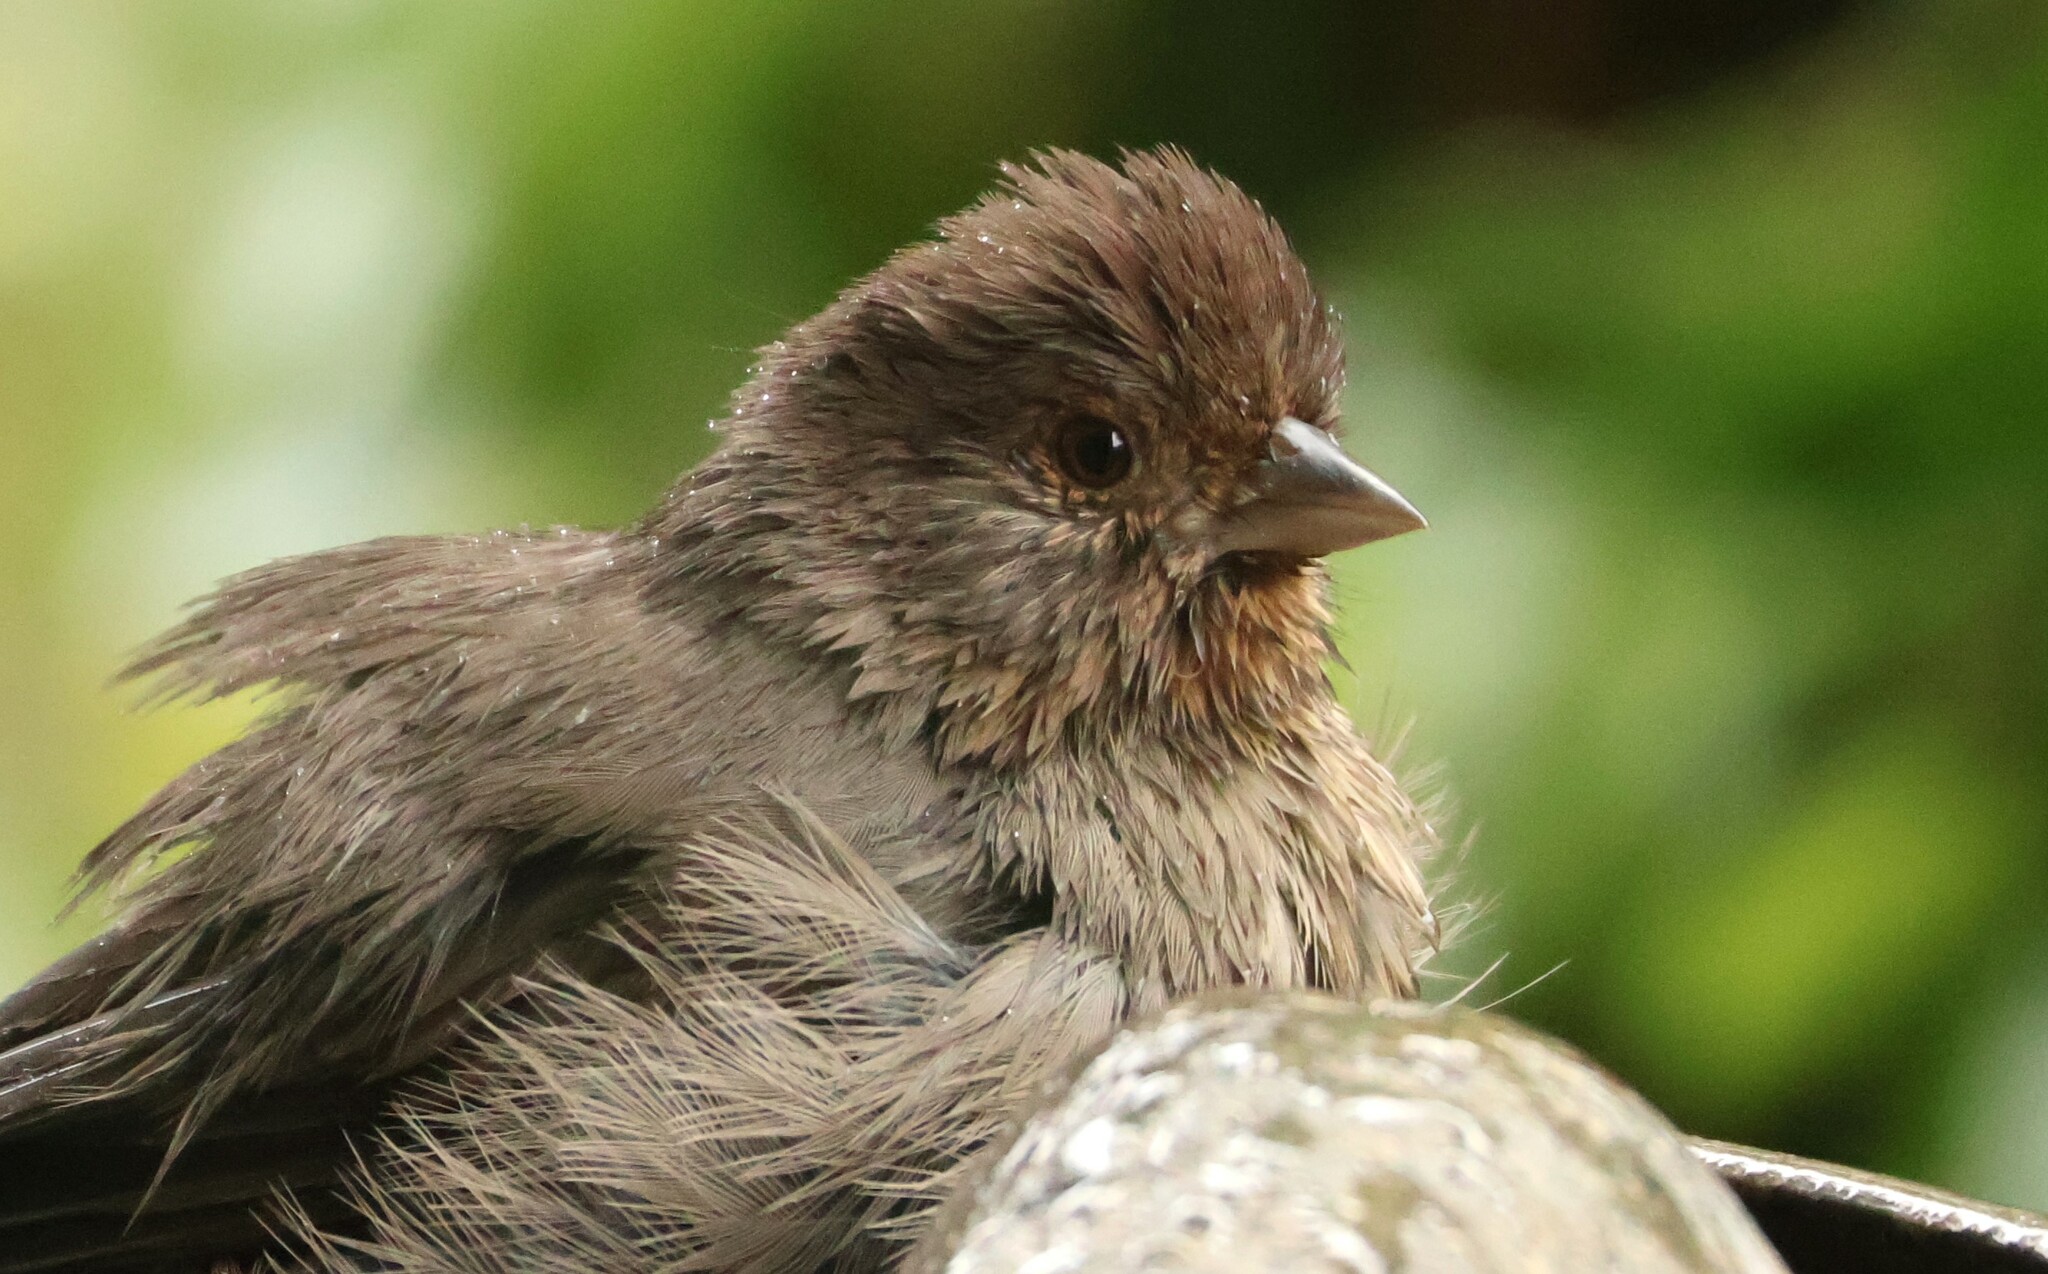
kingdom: Animalia
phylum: Chordata
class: Aves
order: Passeriformes
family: Passerellidae
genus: Melozone
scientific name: Melozone crissalis
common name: California towhee
